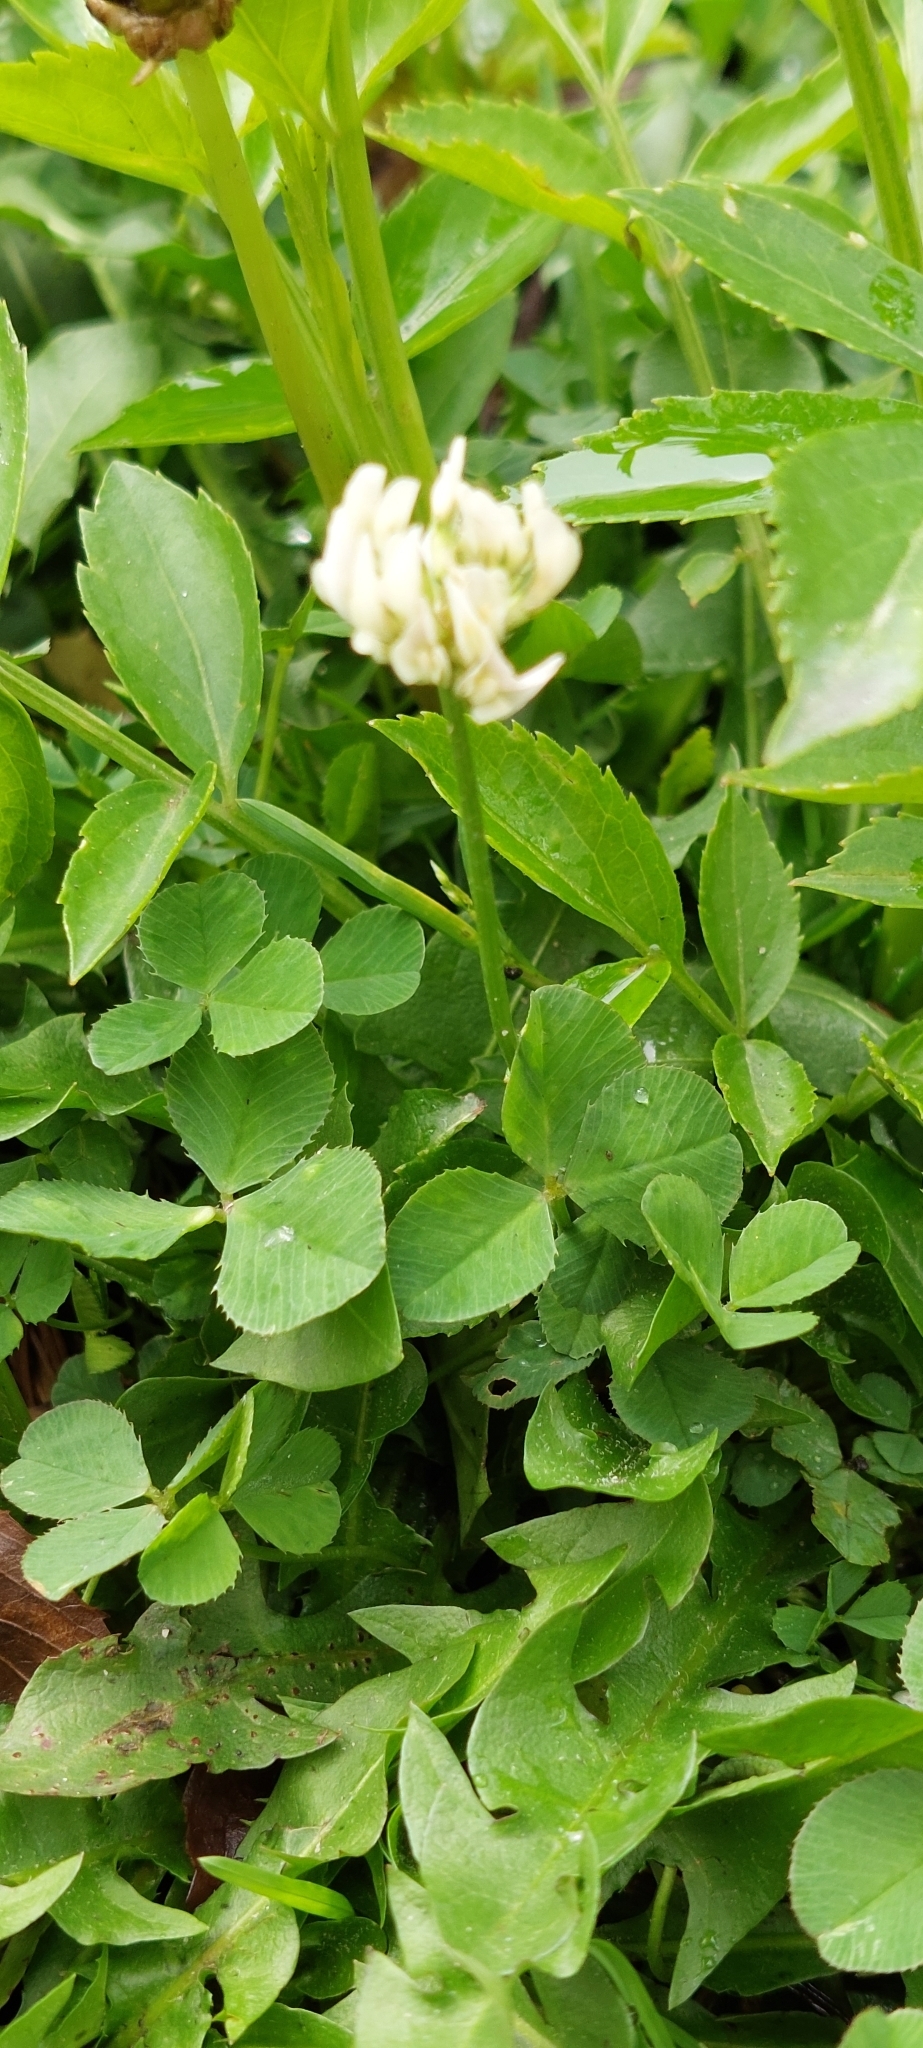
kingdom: Plantae
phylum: Tracheophyta
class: Magnoliopsida
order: Fabales
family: Fabaceae
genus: Trifolium
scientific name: Trifolium repens
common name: White clover
